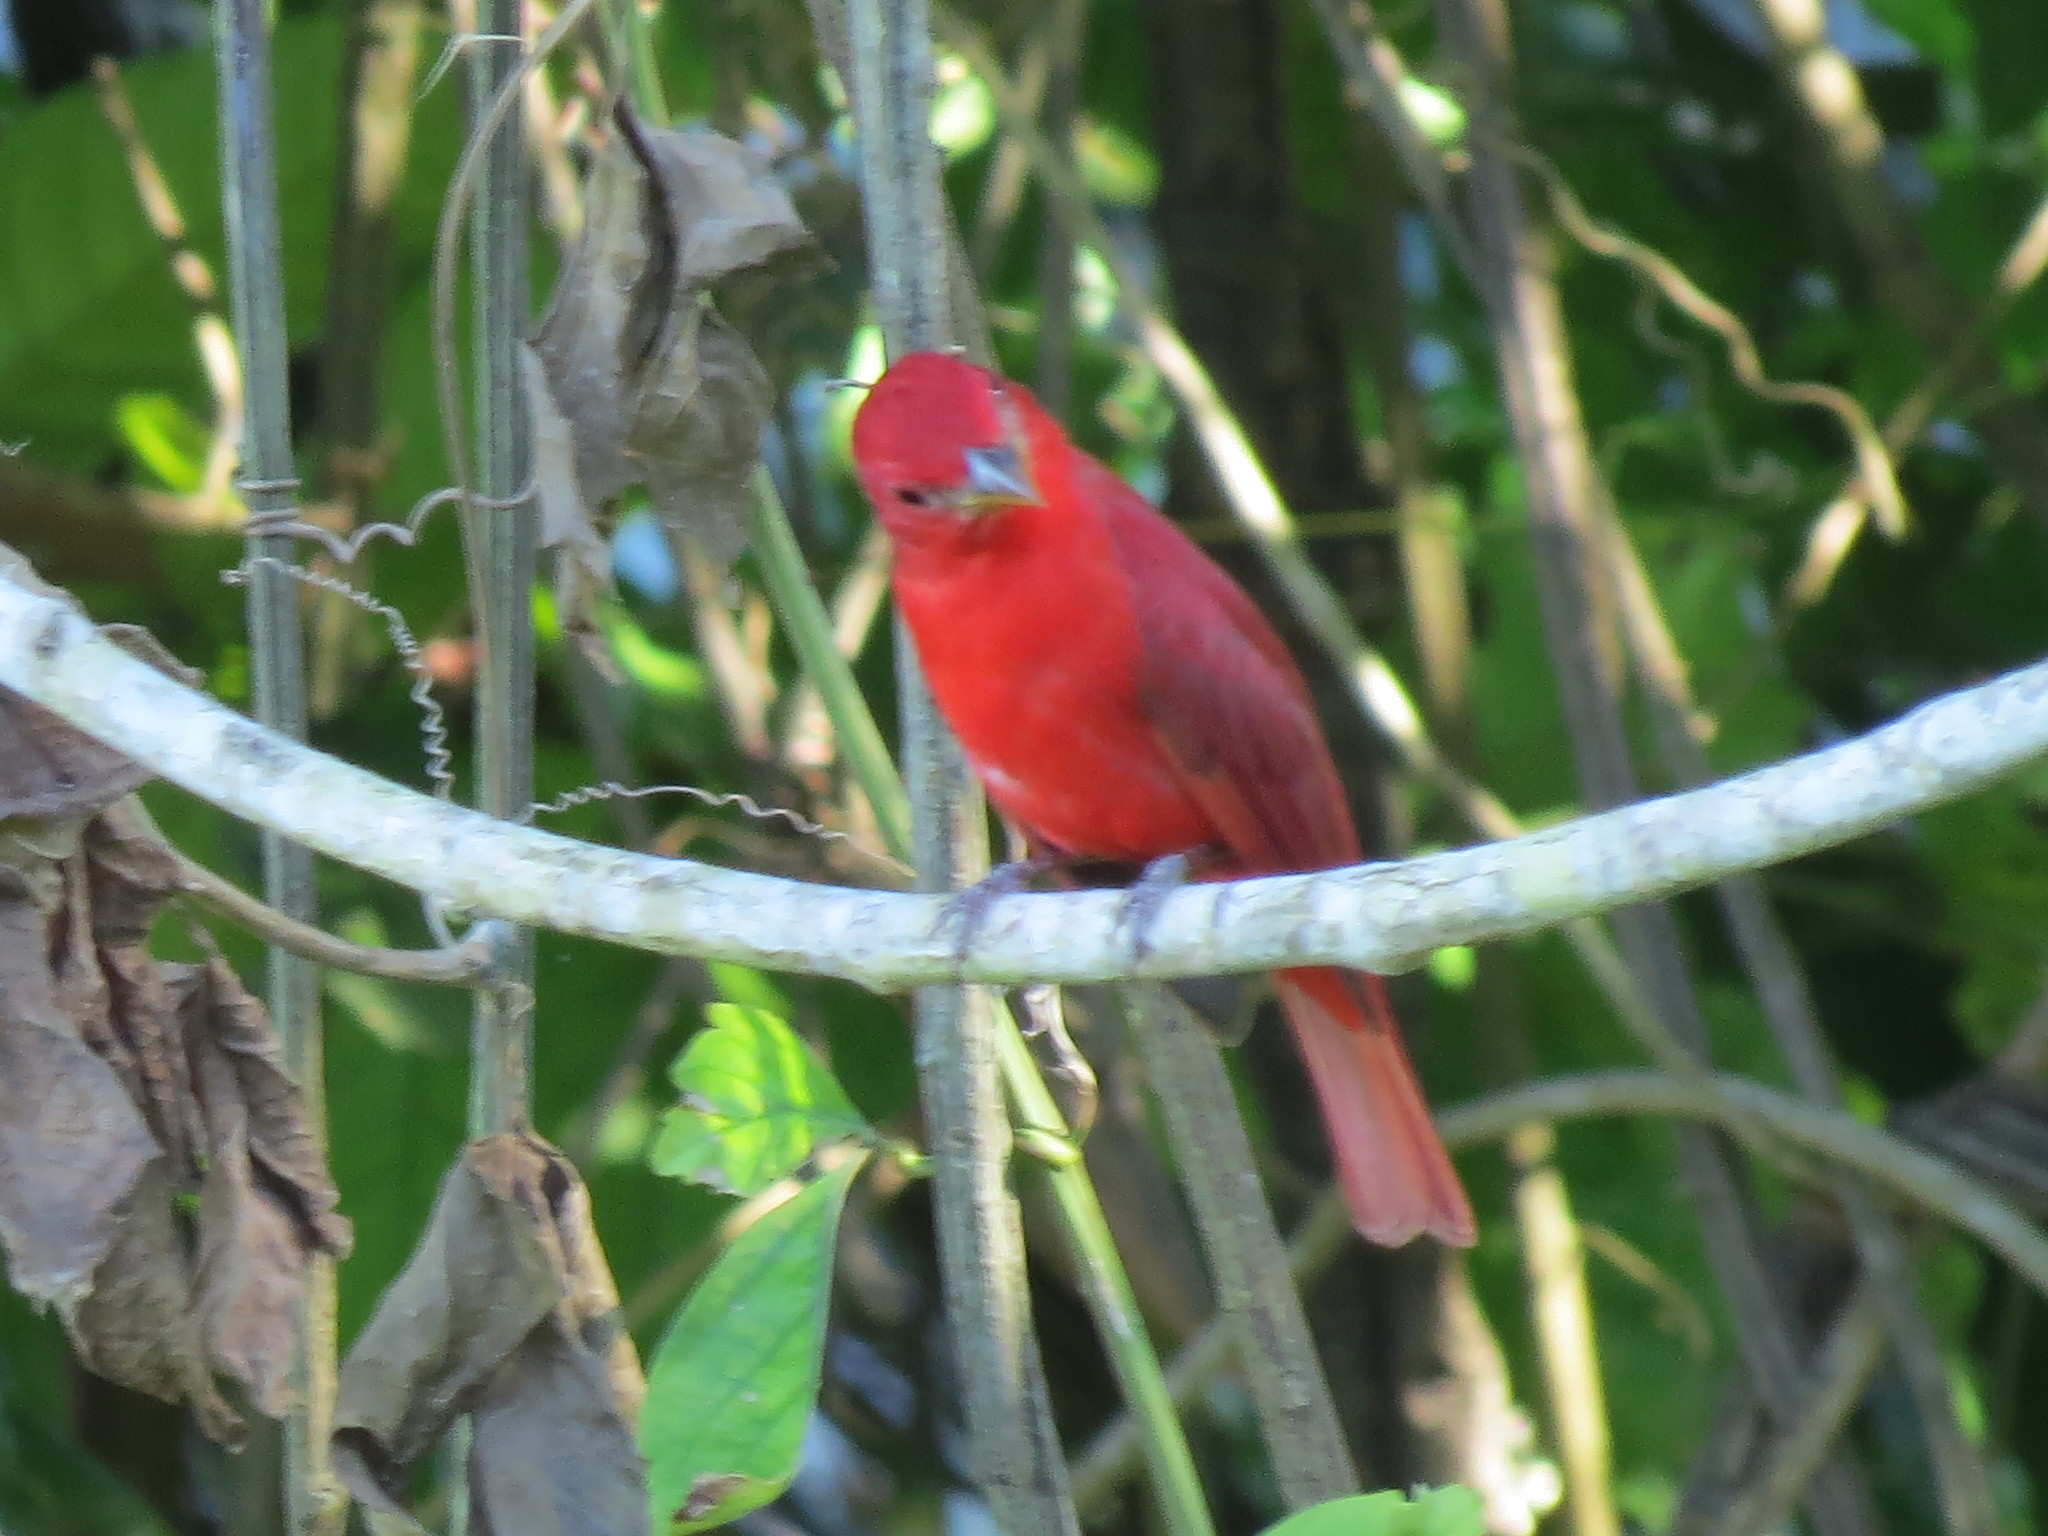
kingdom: Animalia
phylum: Chordata
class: Aves
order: Passeriformes
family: Cardinalidae
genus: Piranga
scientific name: Piranga rubra
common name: Summer tanager
